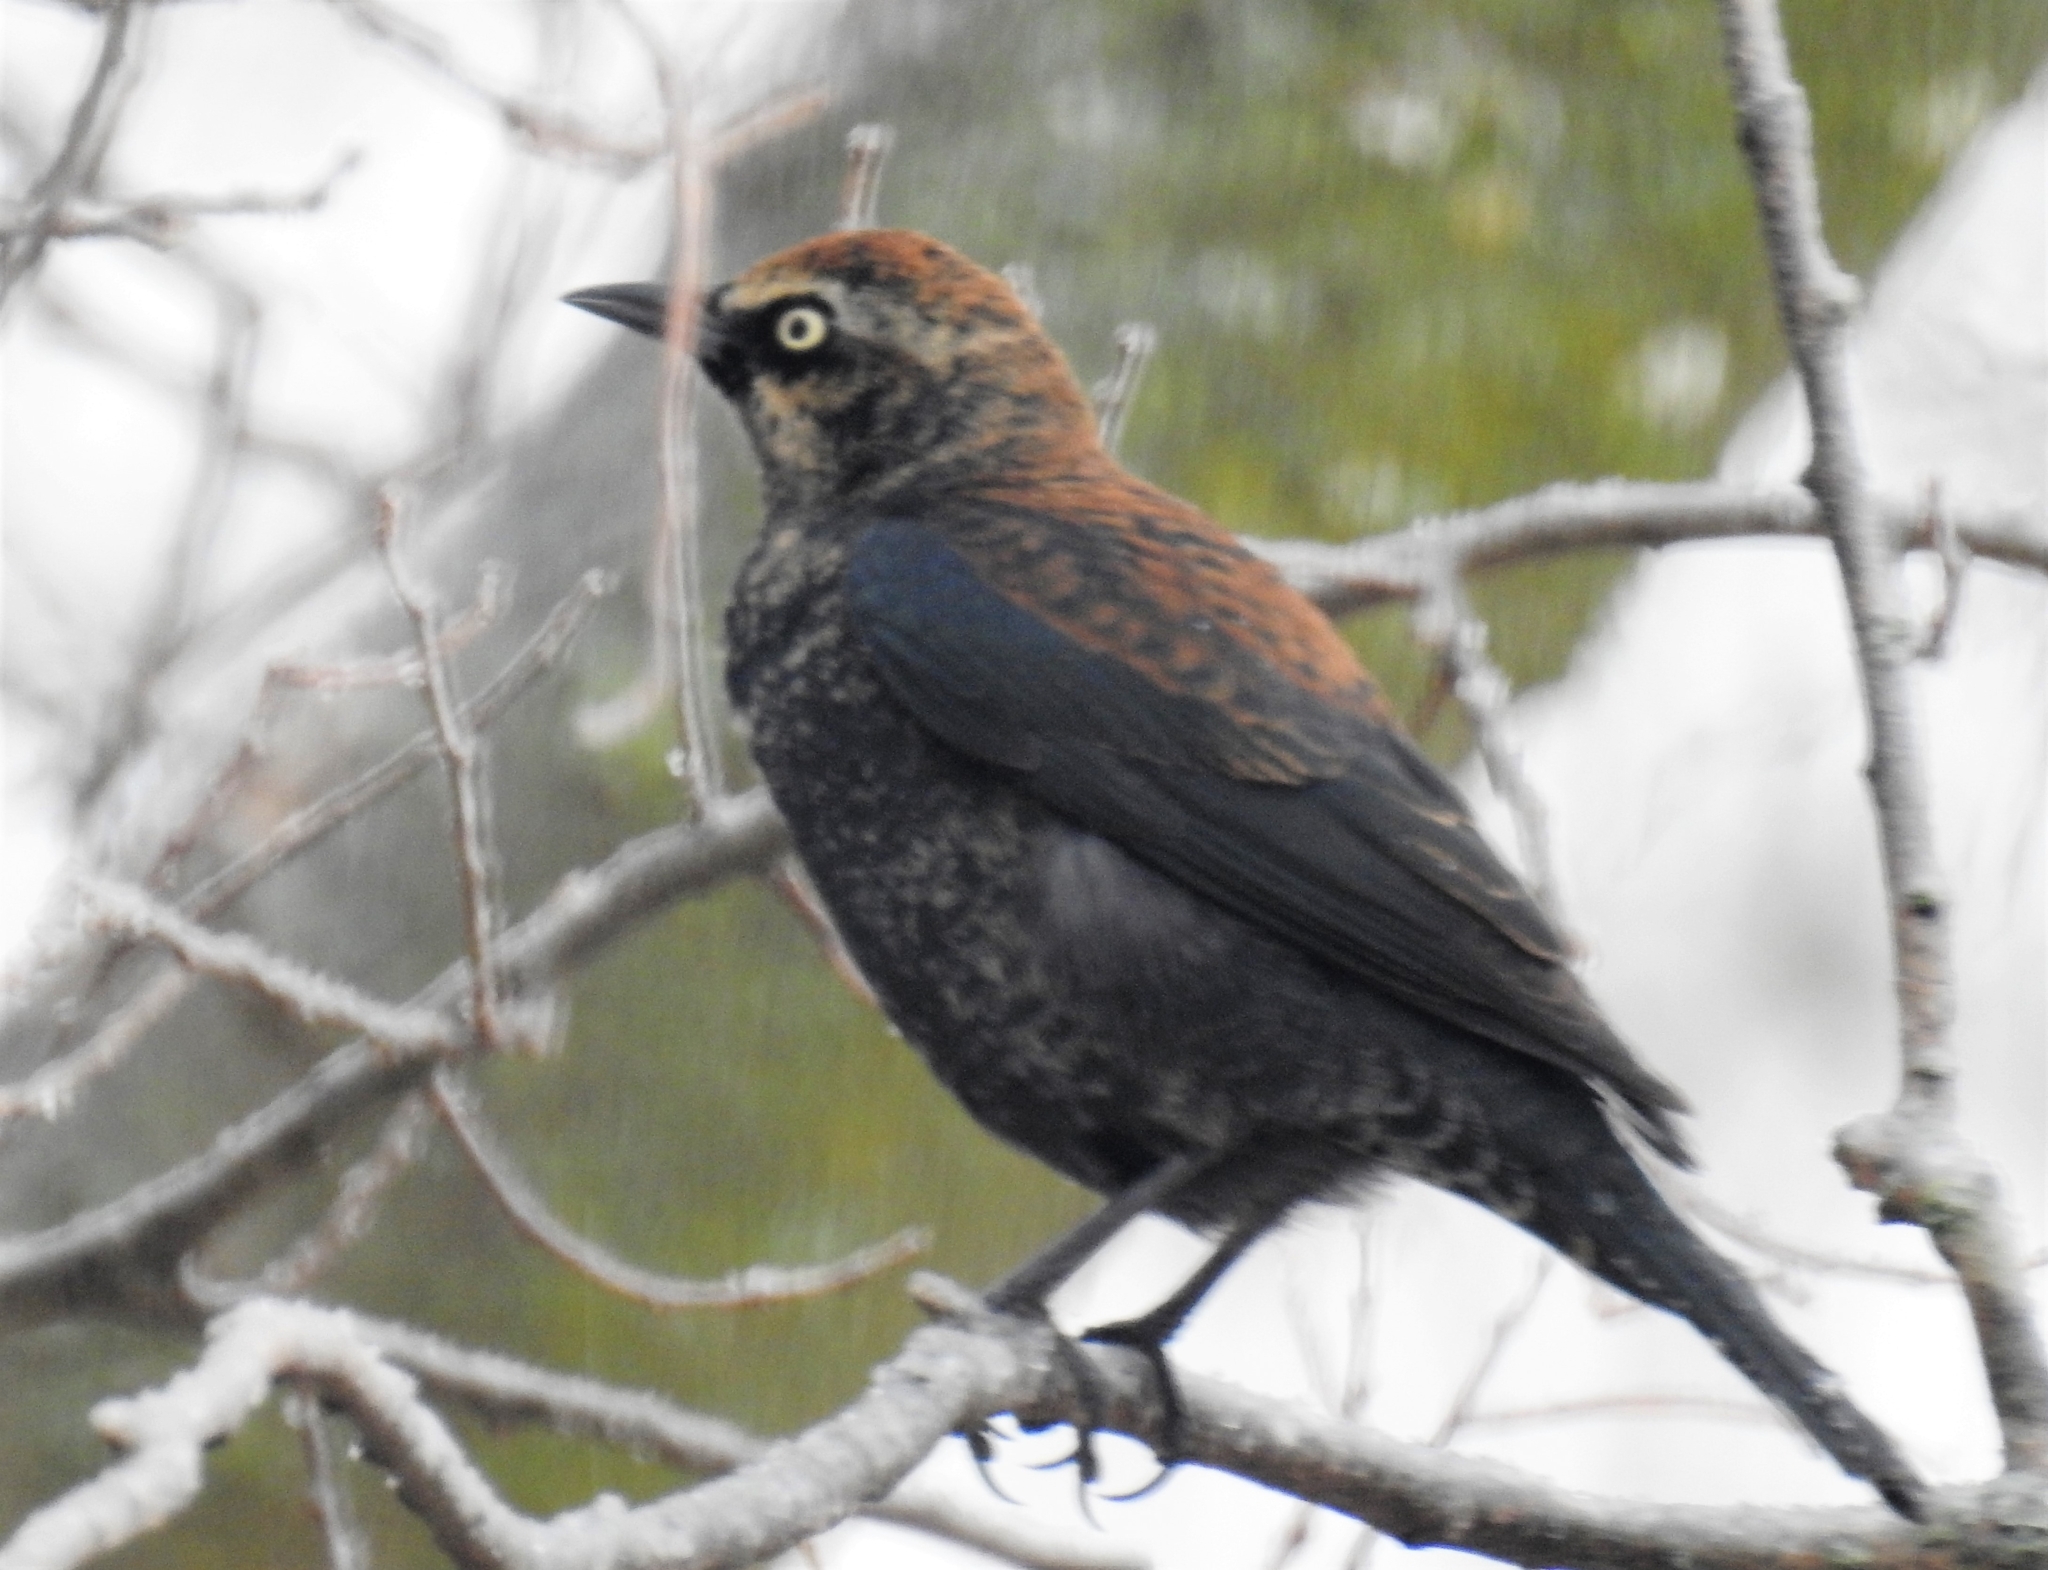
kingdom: Animalia
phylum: Chordata
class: Aves
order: Passeriformes
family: Icteridae
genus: Euphagus
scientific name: Euphagus carolinus
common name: Rusty blackbird
